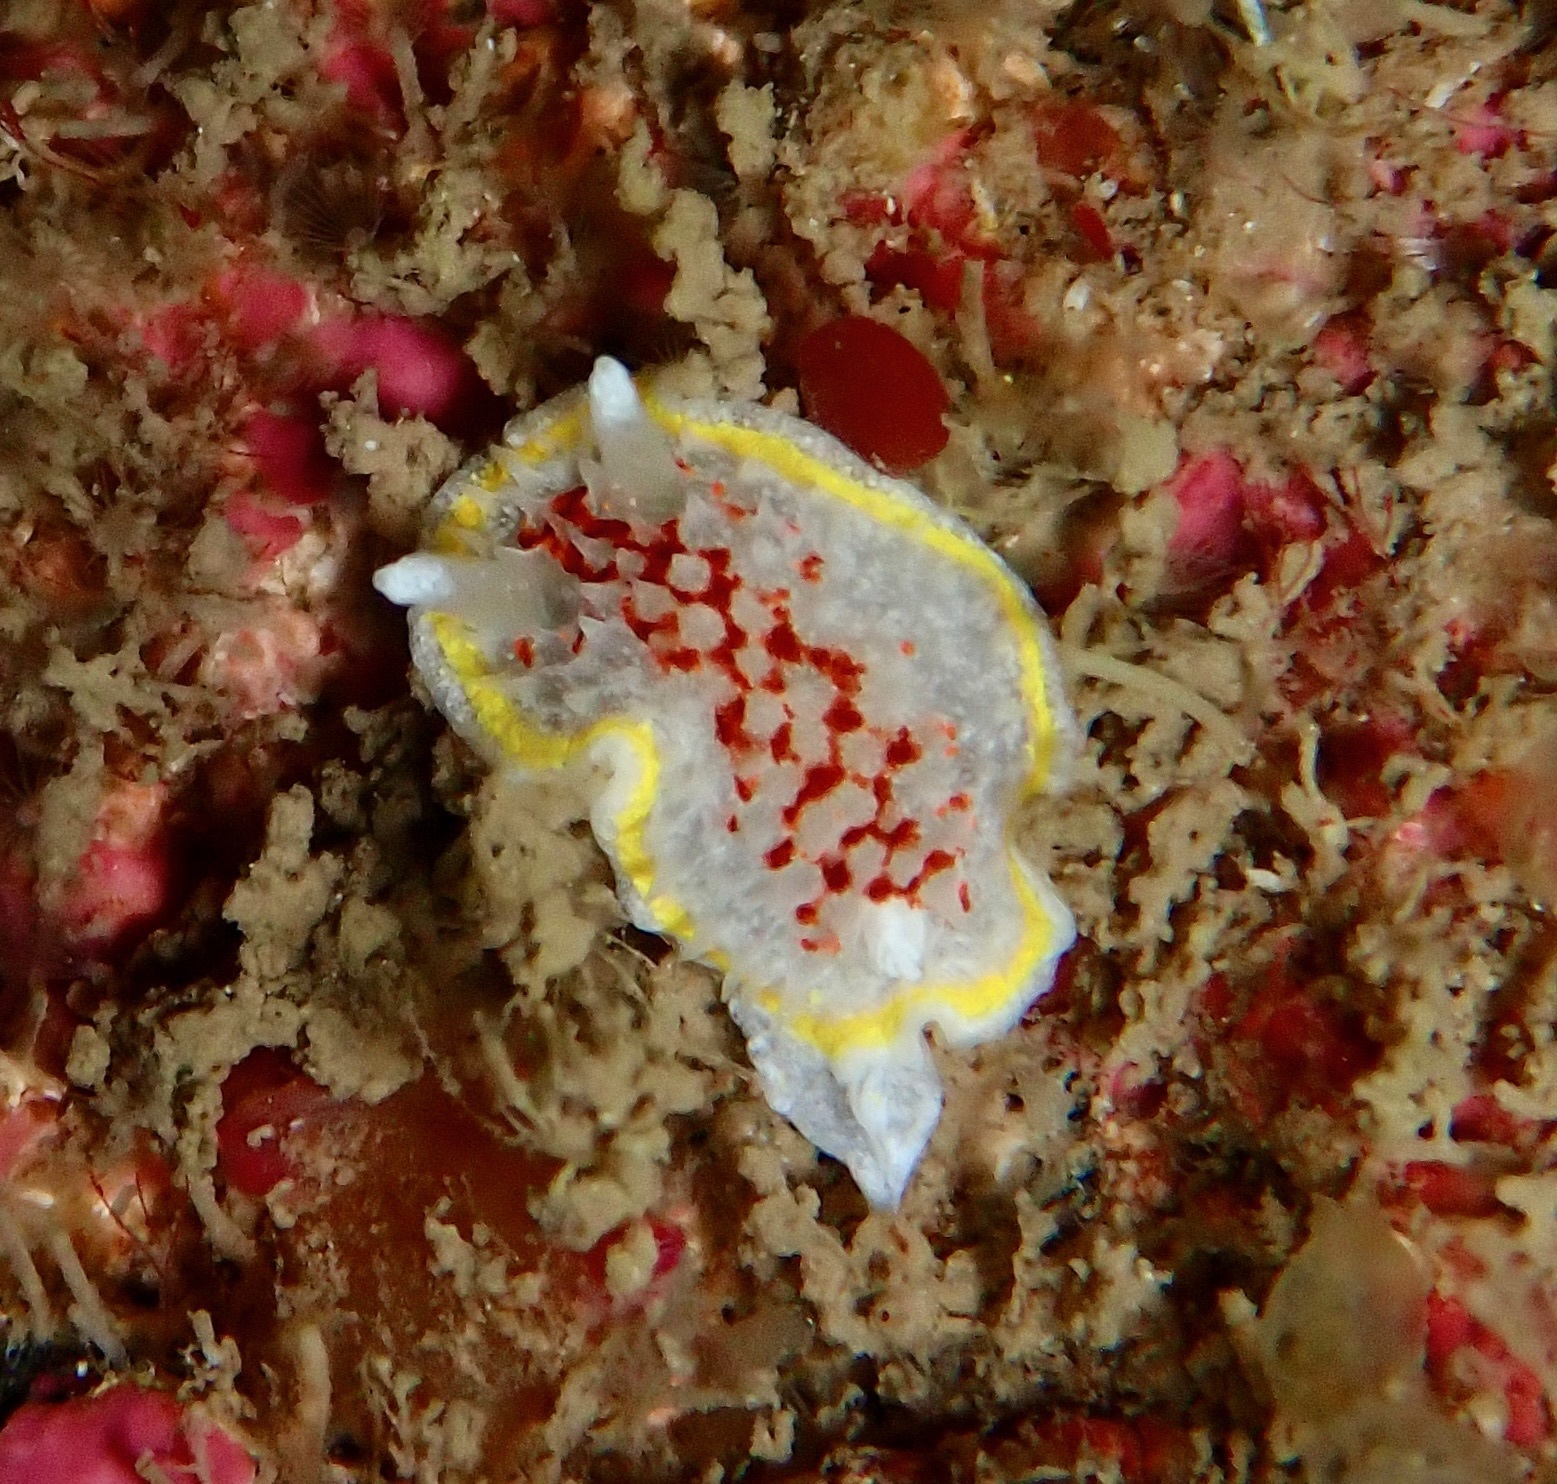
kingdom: Animalia
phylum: Mollusca
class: Gastropoda
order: Nudibranchia
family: Calycidorididae
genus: Diaphorodoris
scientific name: Diaphorodoris luteocincta
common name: Fried egg nudibranch
